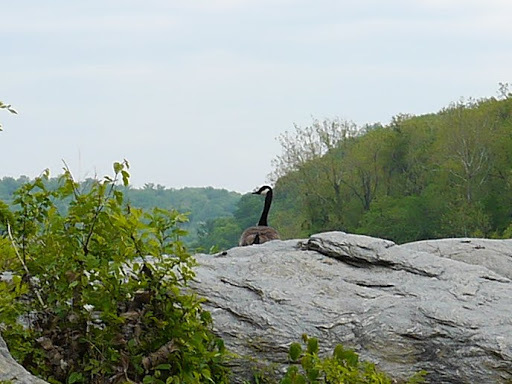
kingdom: Animalia
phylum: Chordata
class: Aves
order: Anseriformes
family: Anatidae
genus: Branta
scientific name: Branta canadensis
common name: Canada goose
